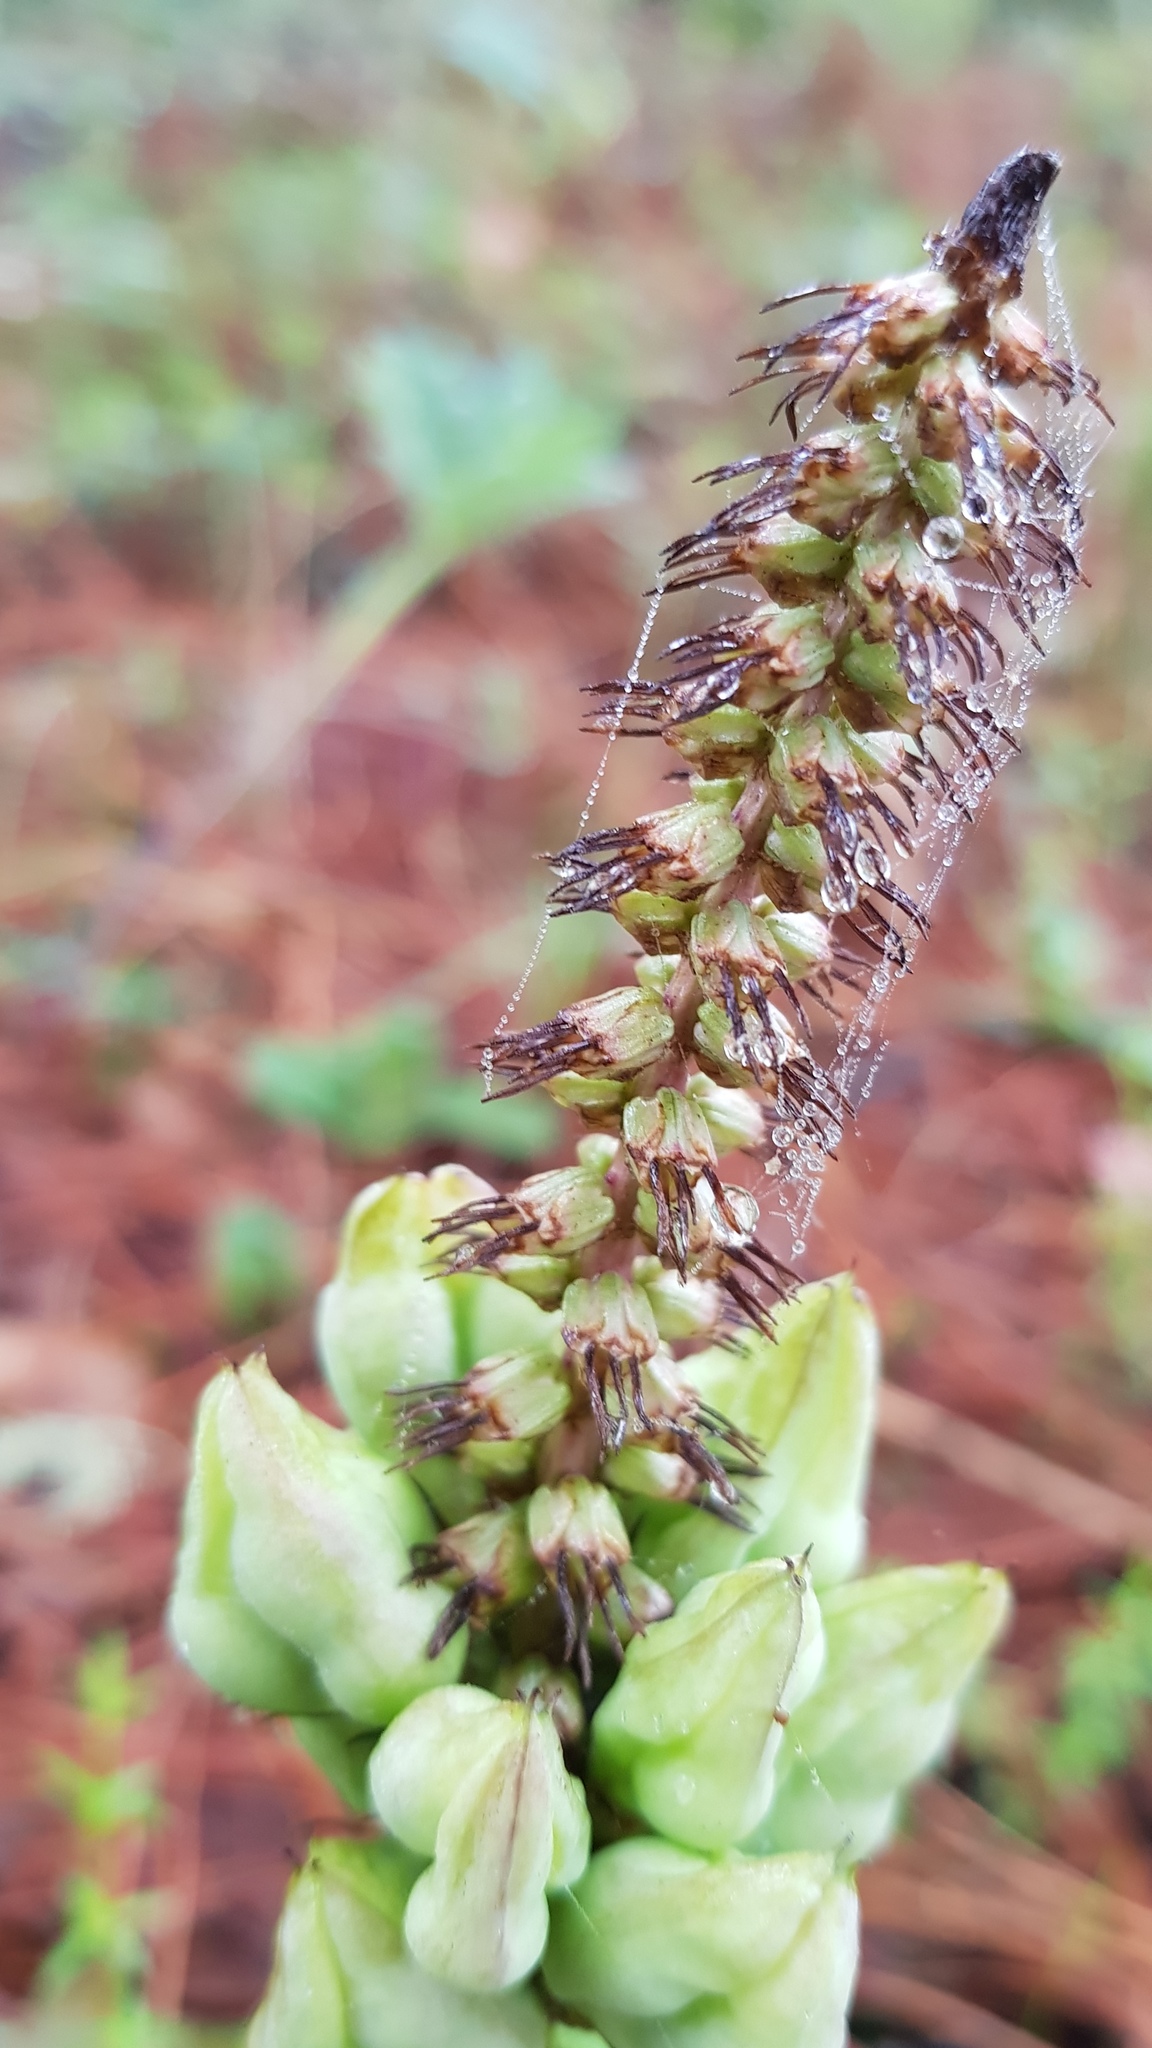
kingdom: Plantae
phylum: Tracheophyta
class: Liliopsida
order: Liliales
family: Melanthiaceae
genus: Schoenocaulon
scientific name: Schoenocaulon calcicola
